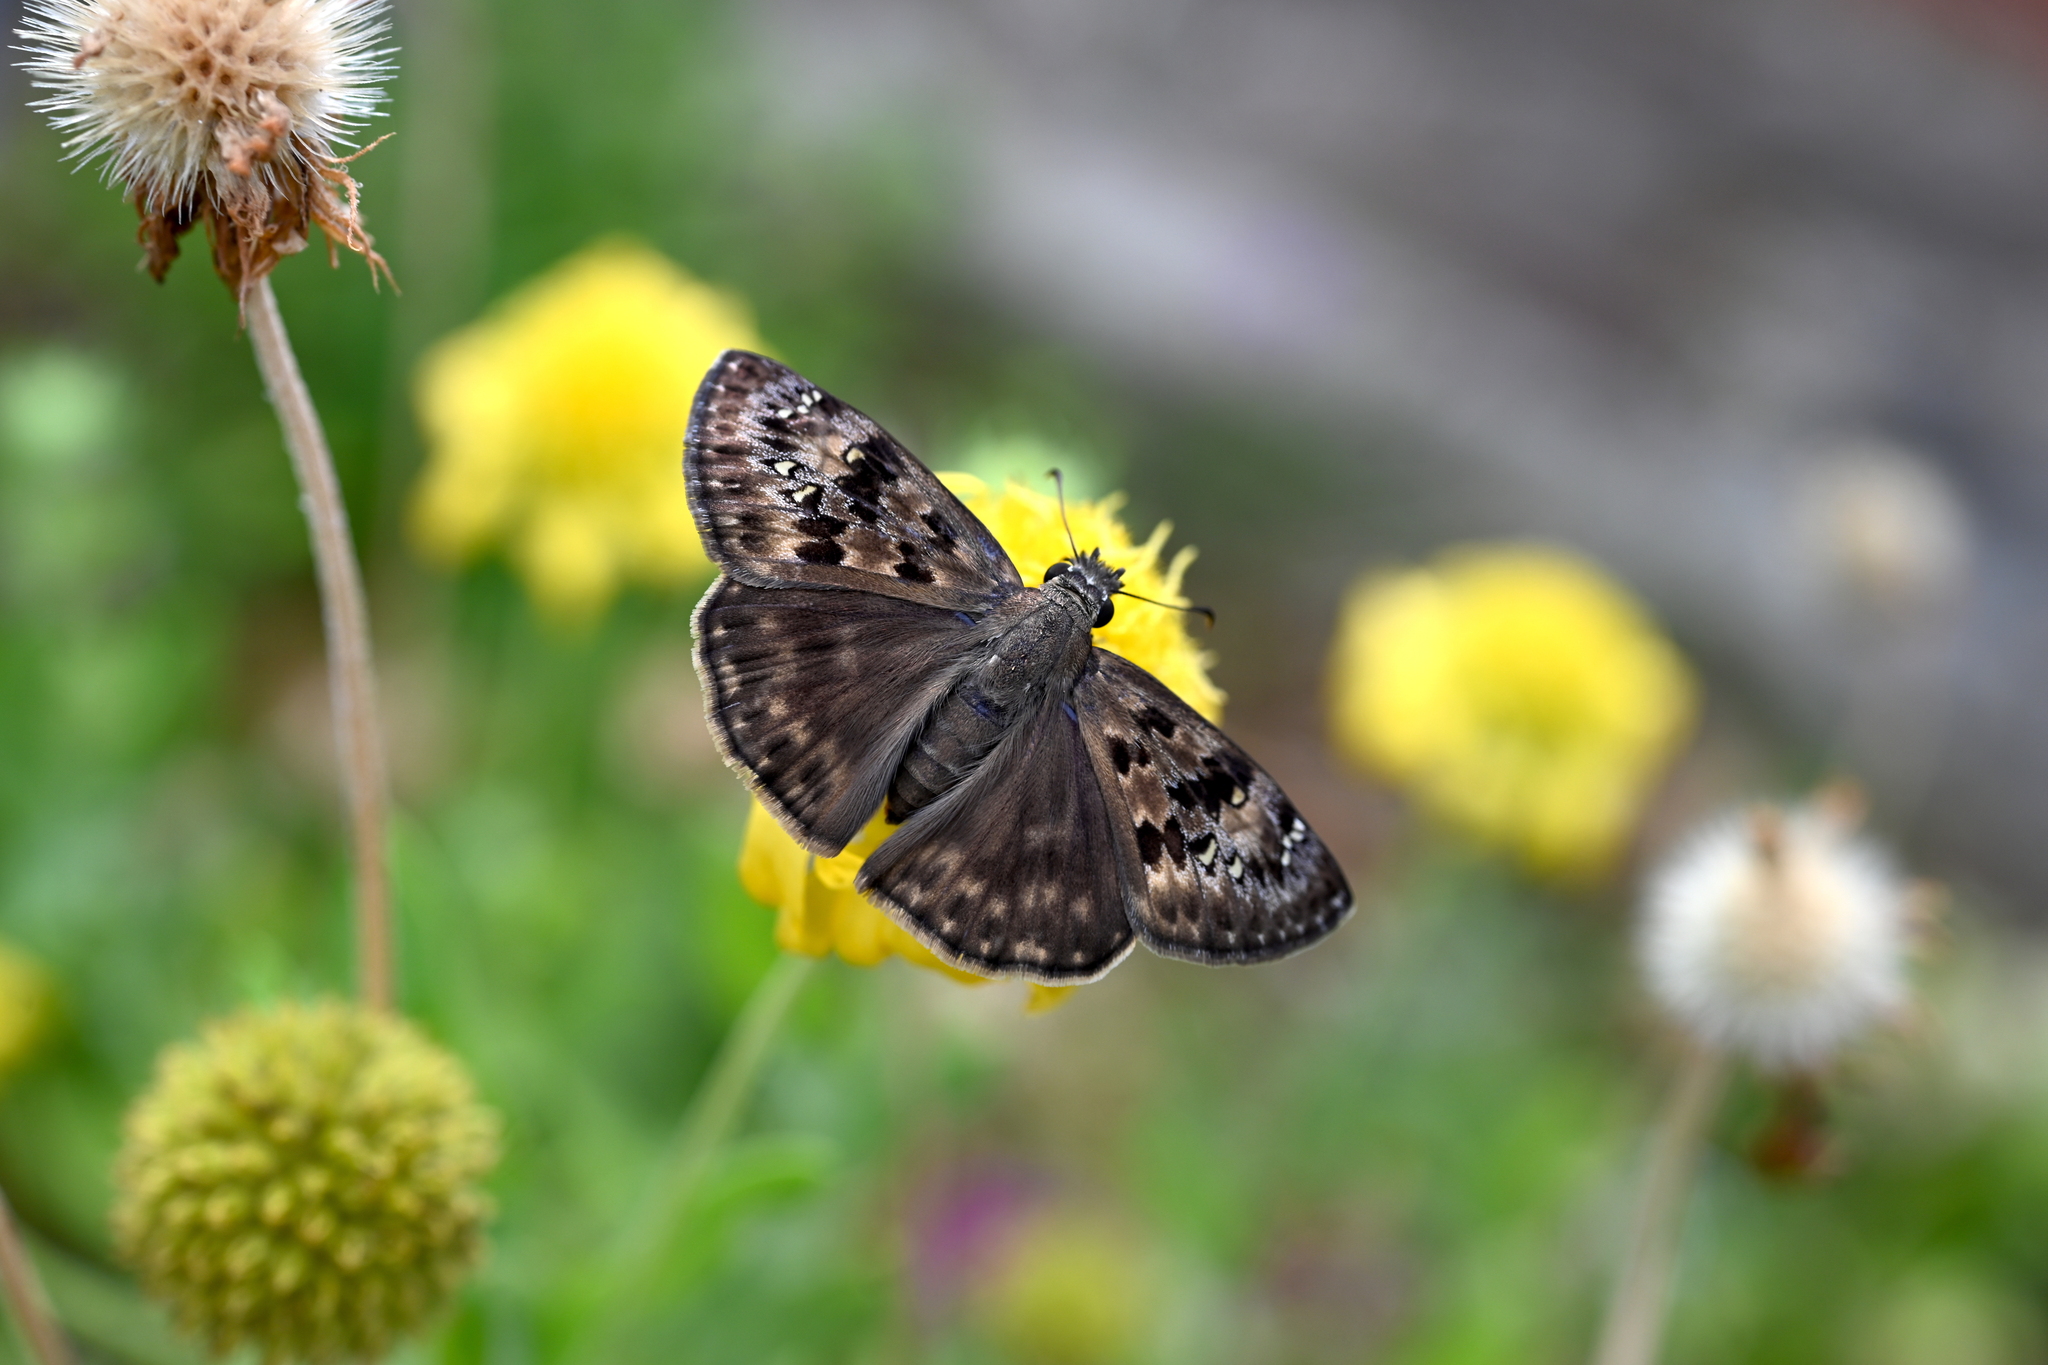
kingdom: Animalia
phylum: Arthropoda
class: Insecta
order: Lepidoptera
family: Hesperiidae
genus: Erynnis
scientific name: Erynnis horatius
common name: Horace's duskywing
